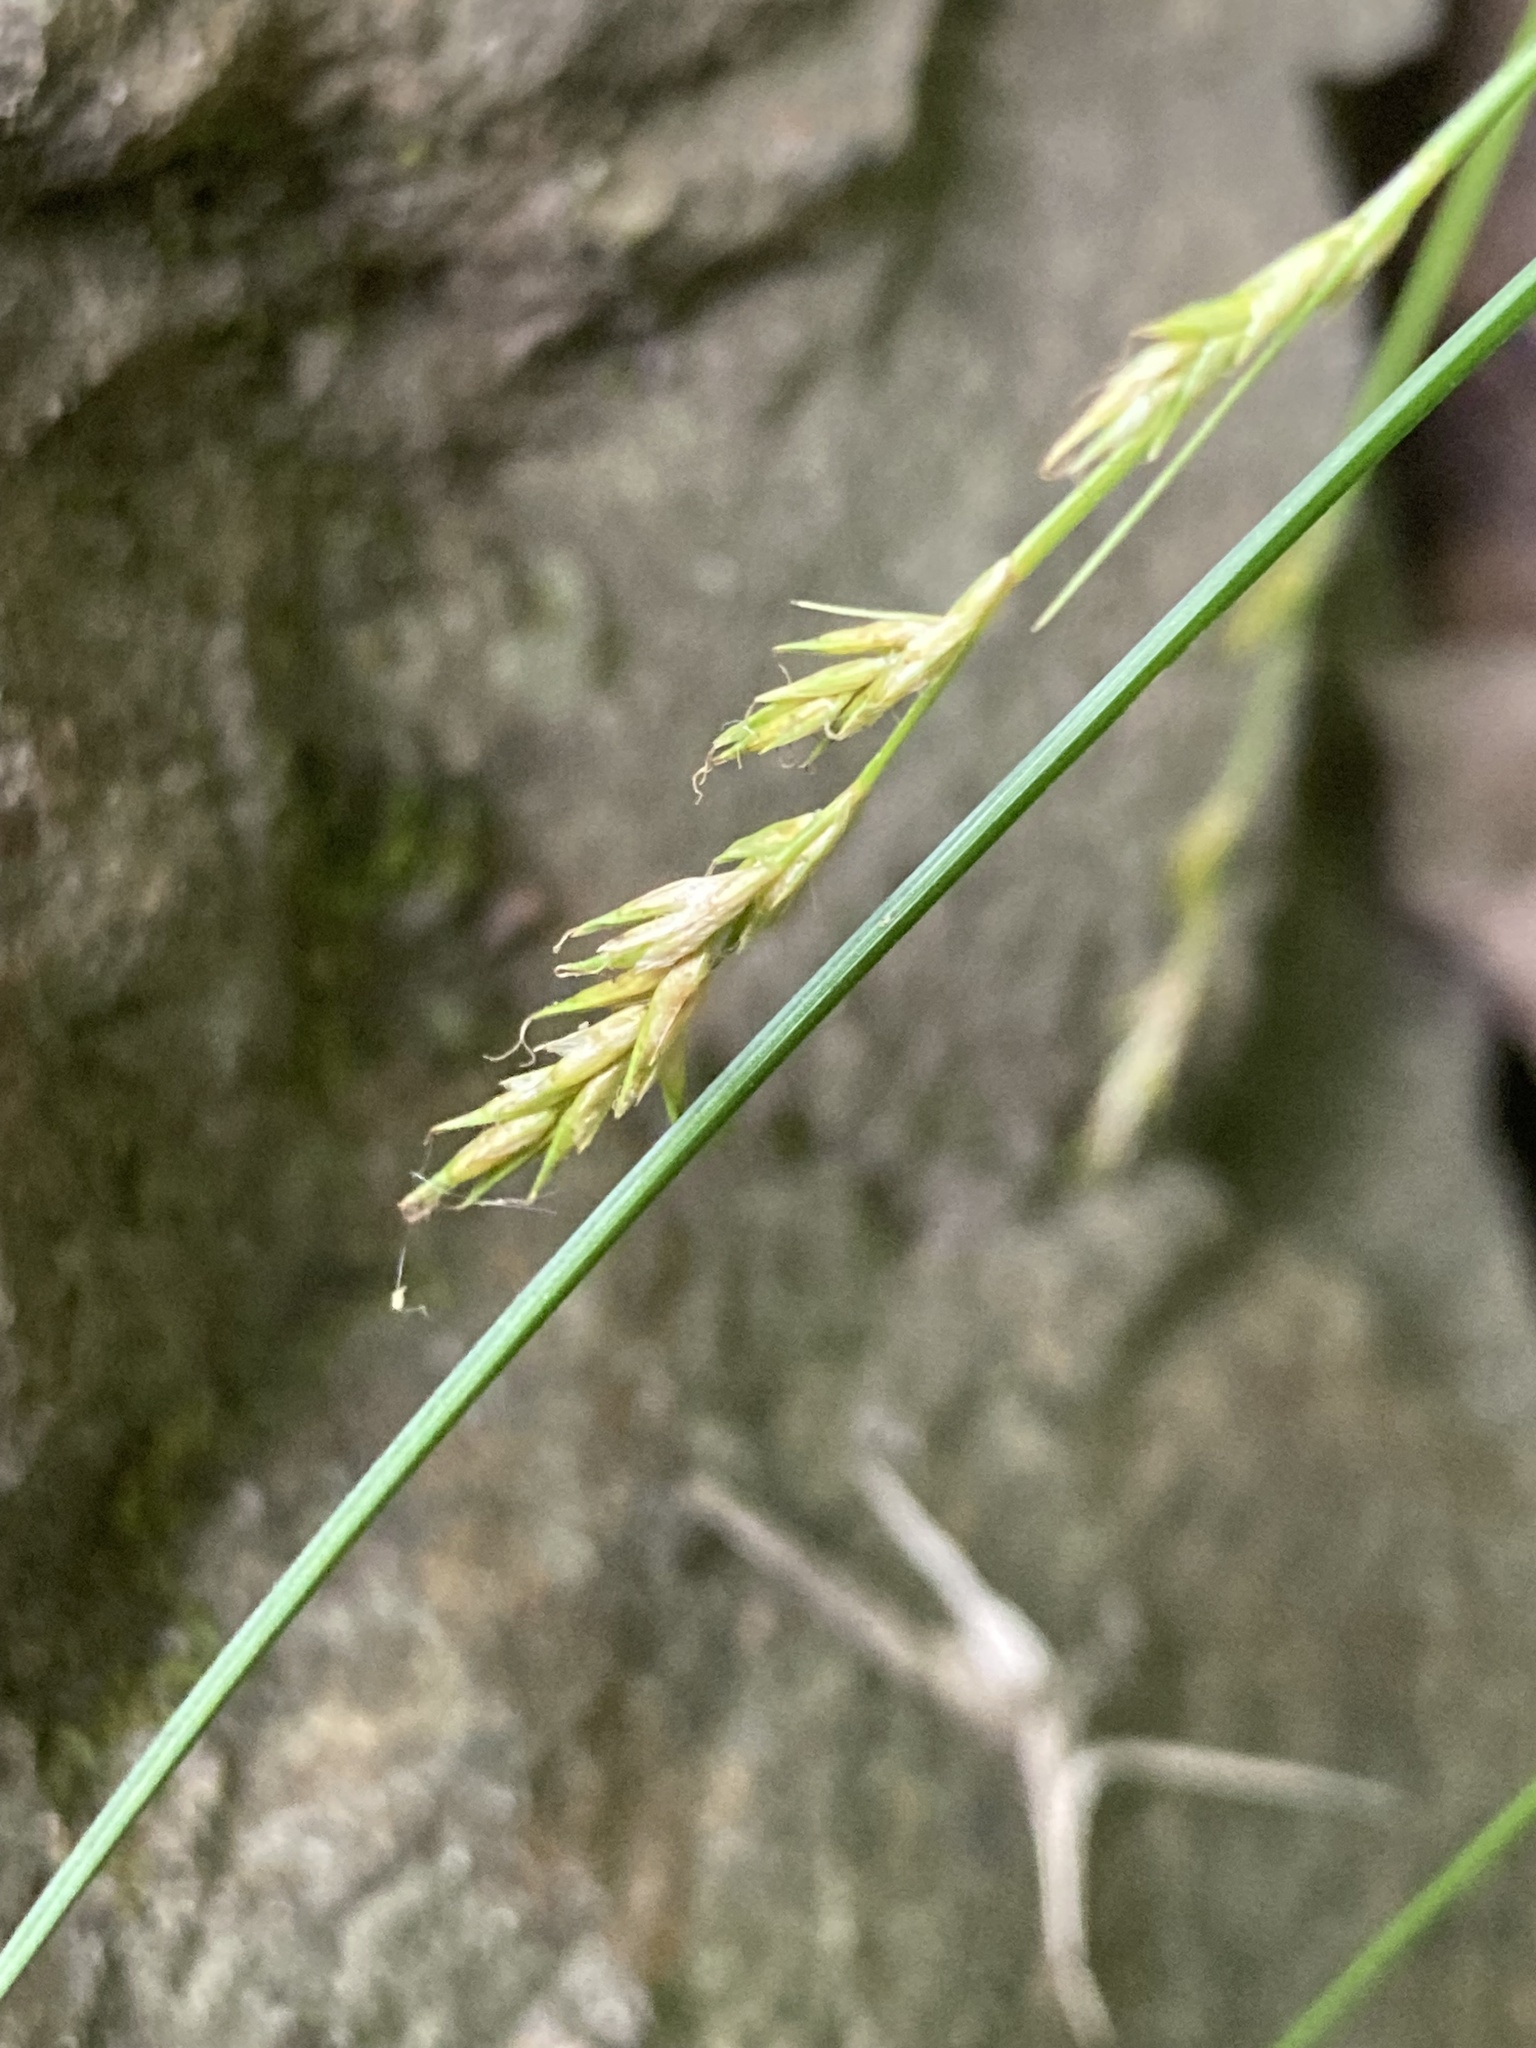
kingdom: Plantae
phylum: Tracheophyta
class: Liliopsida
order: Poales
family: Cyperaceae
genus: Carex
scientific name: Carex bromoides
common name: Brome hummock sedge
